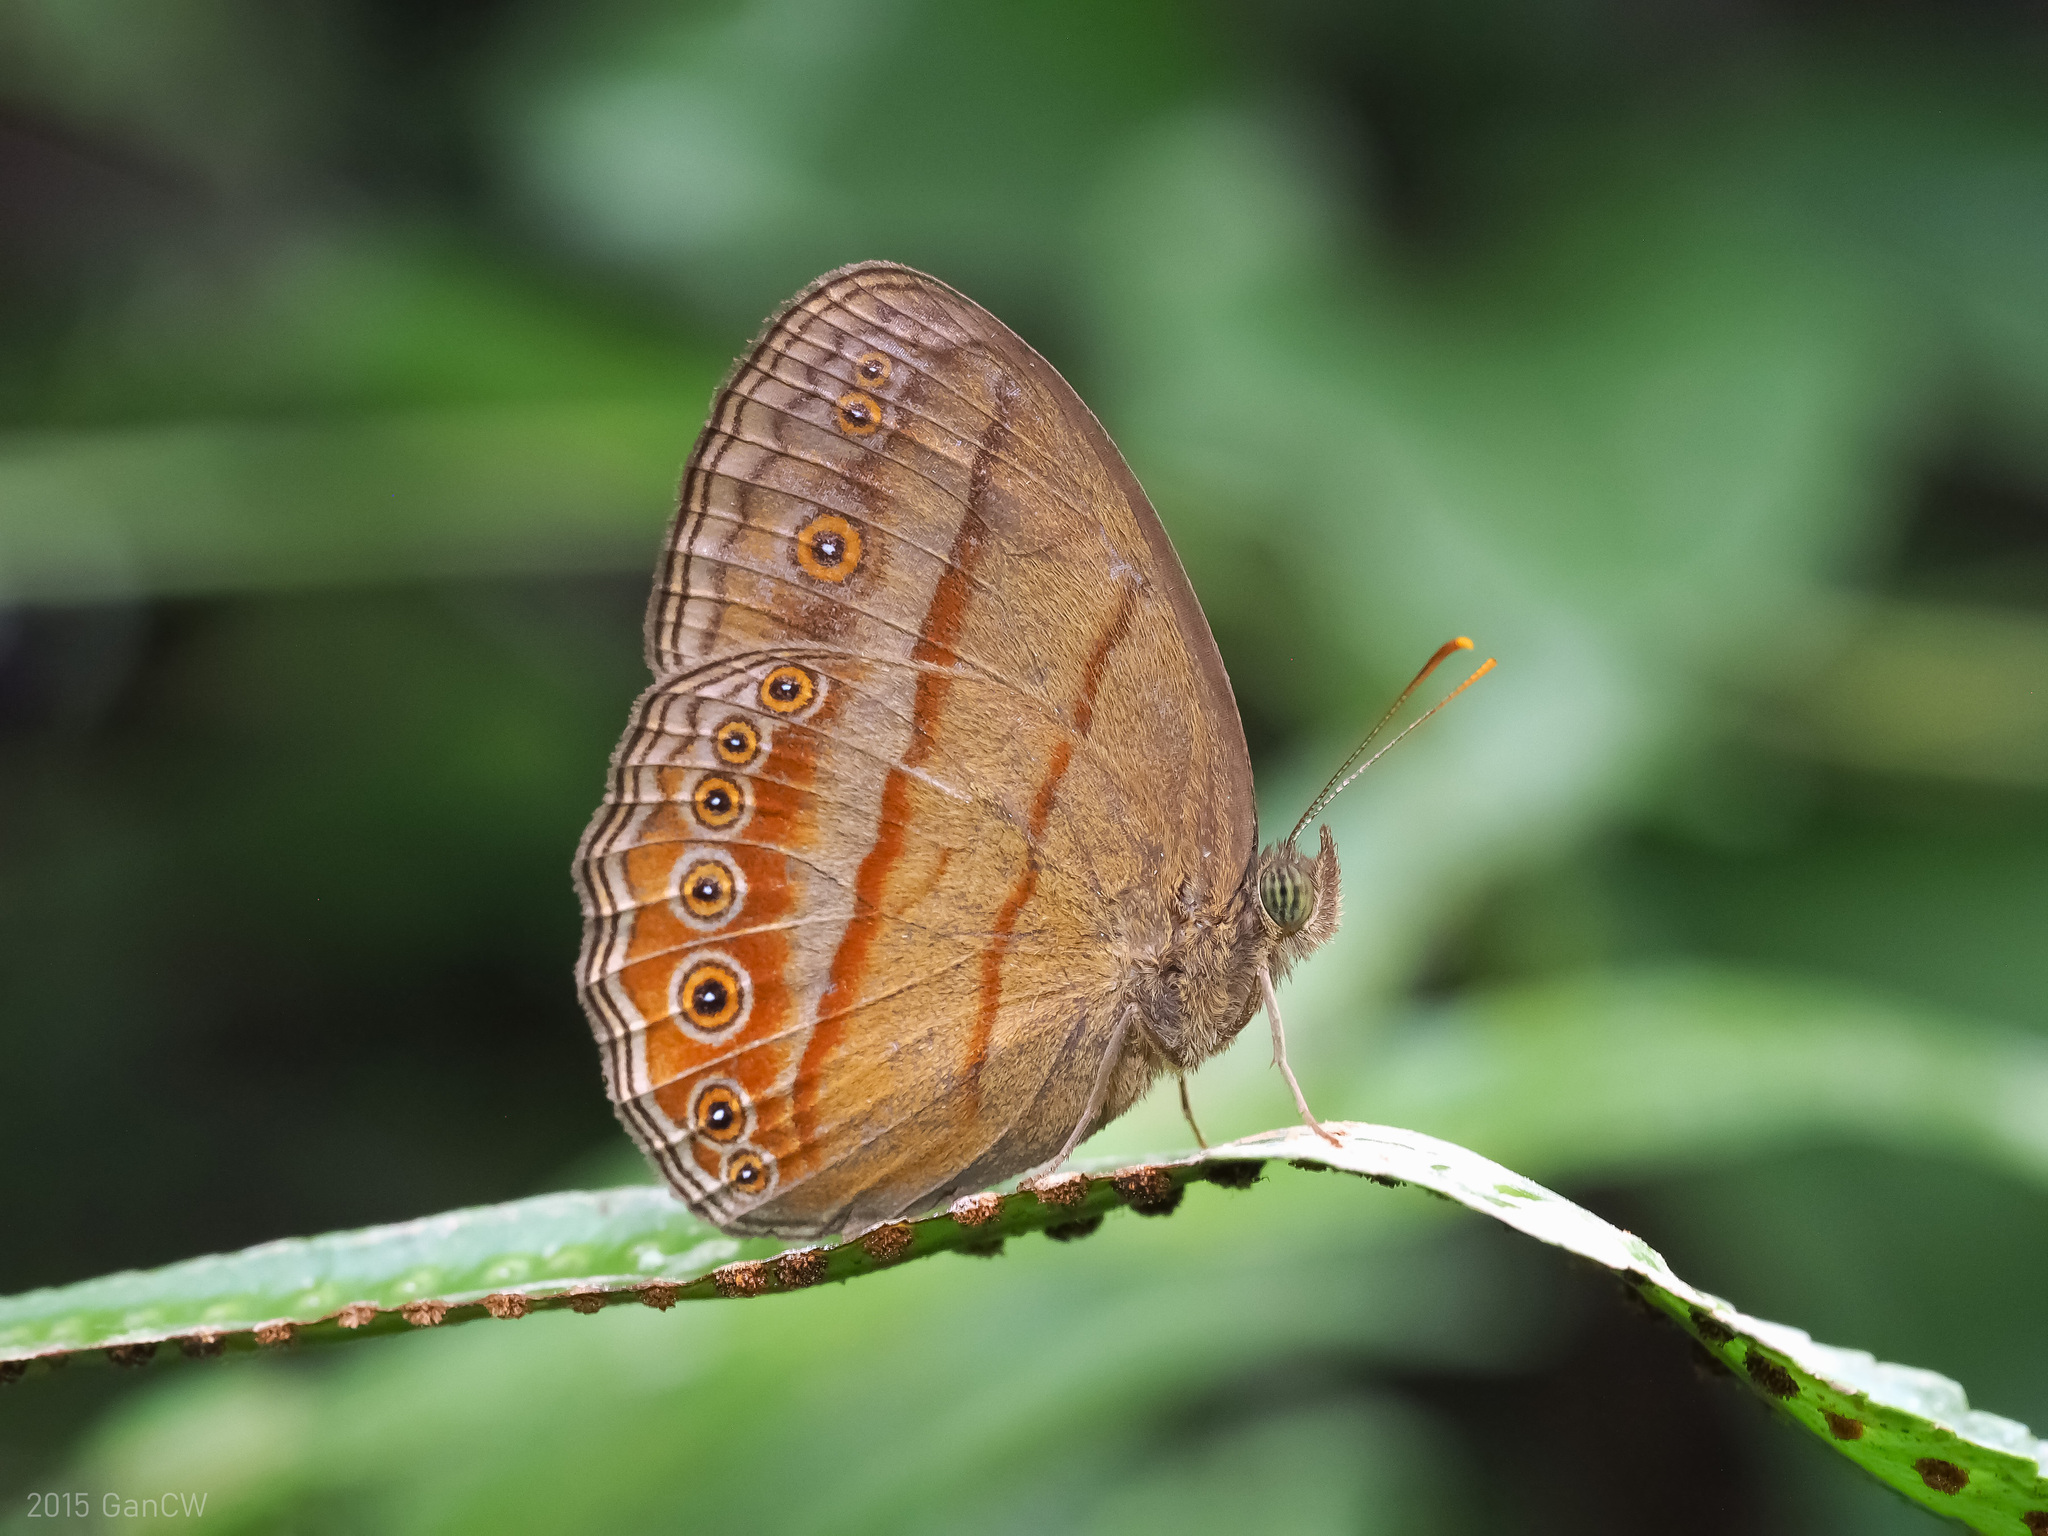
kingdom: Animalia
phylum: Arthropoda
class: Insecta
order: Lepidoptera
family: Nymphalidae
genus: Mycalesis
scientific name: Mycalesis fuscum
